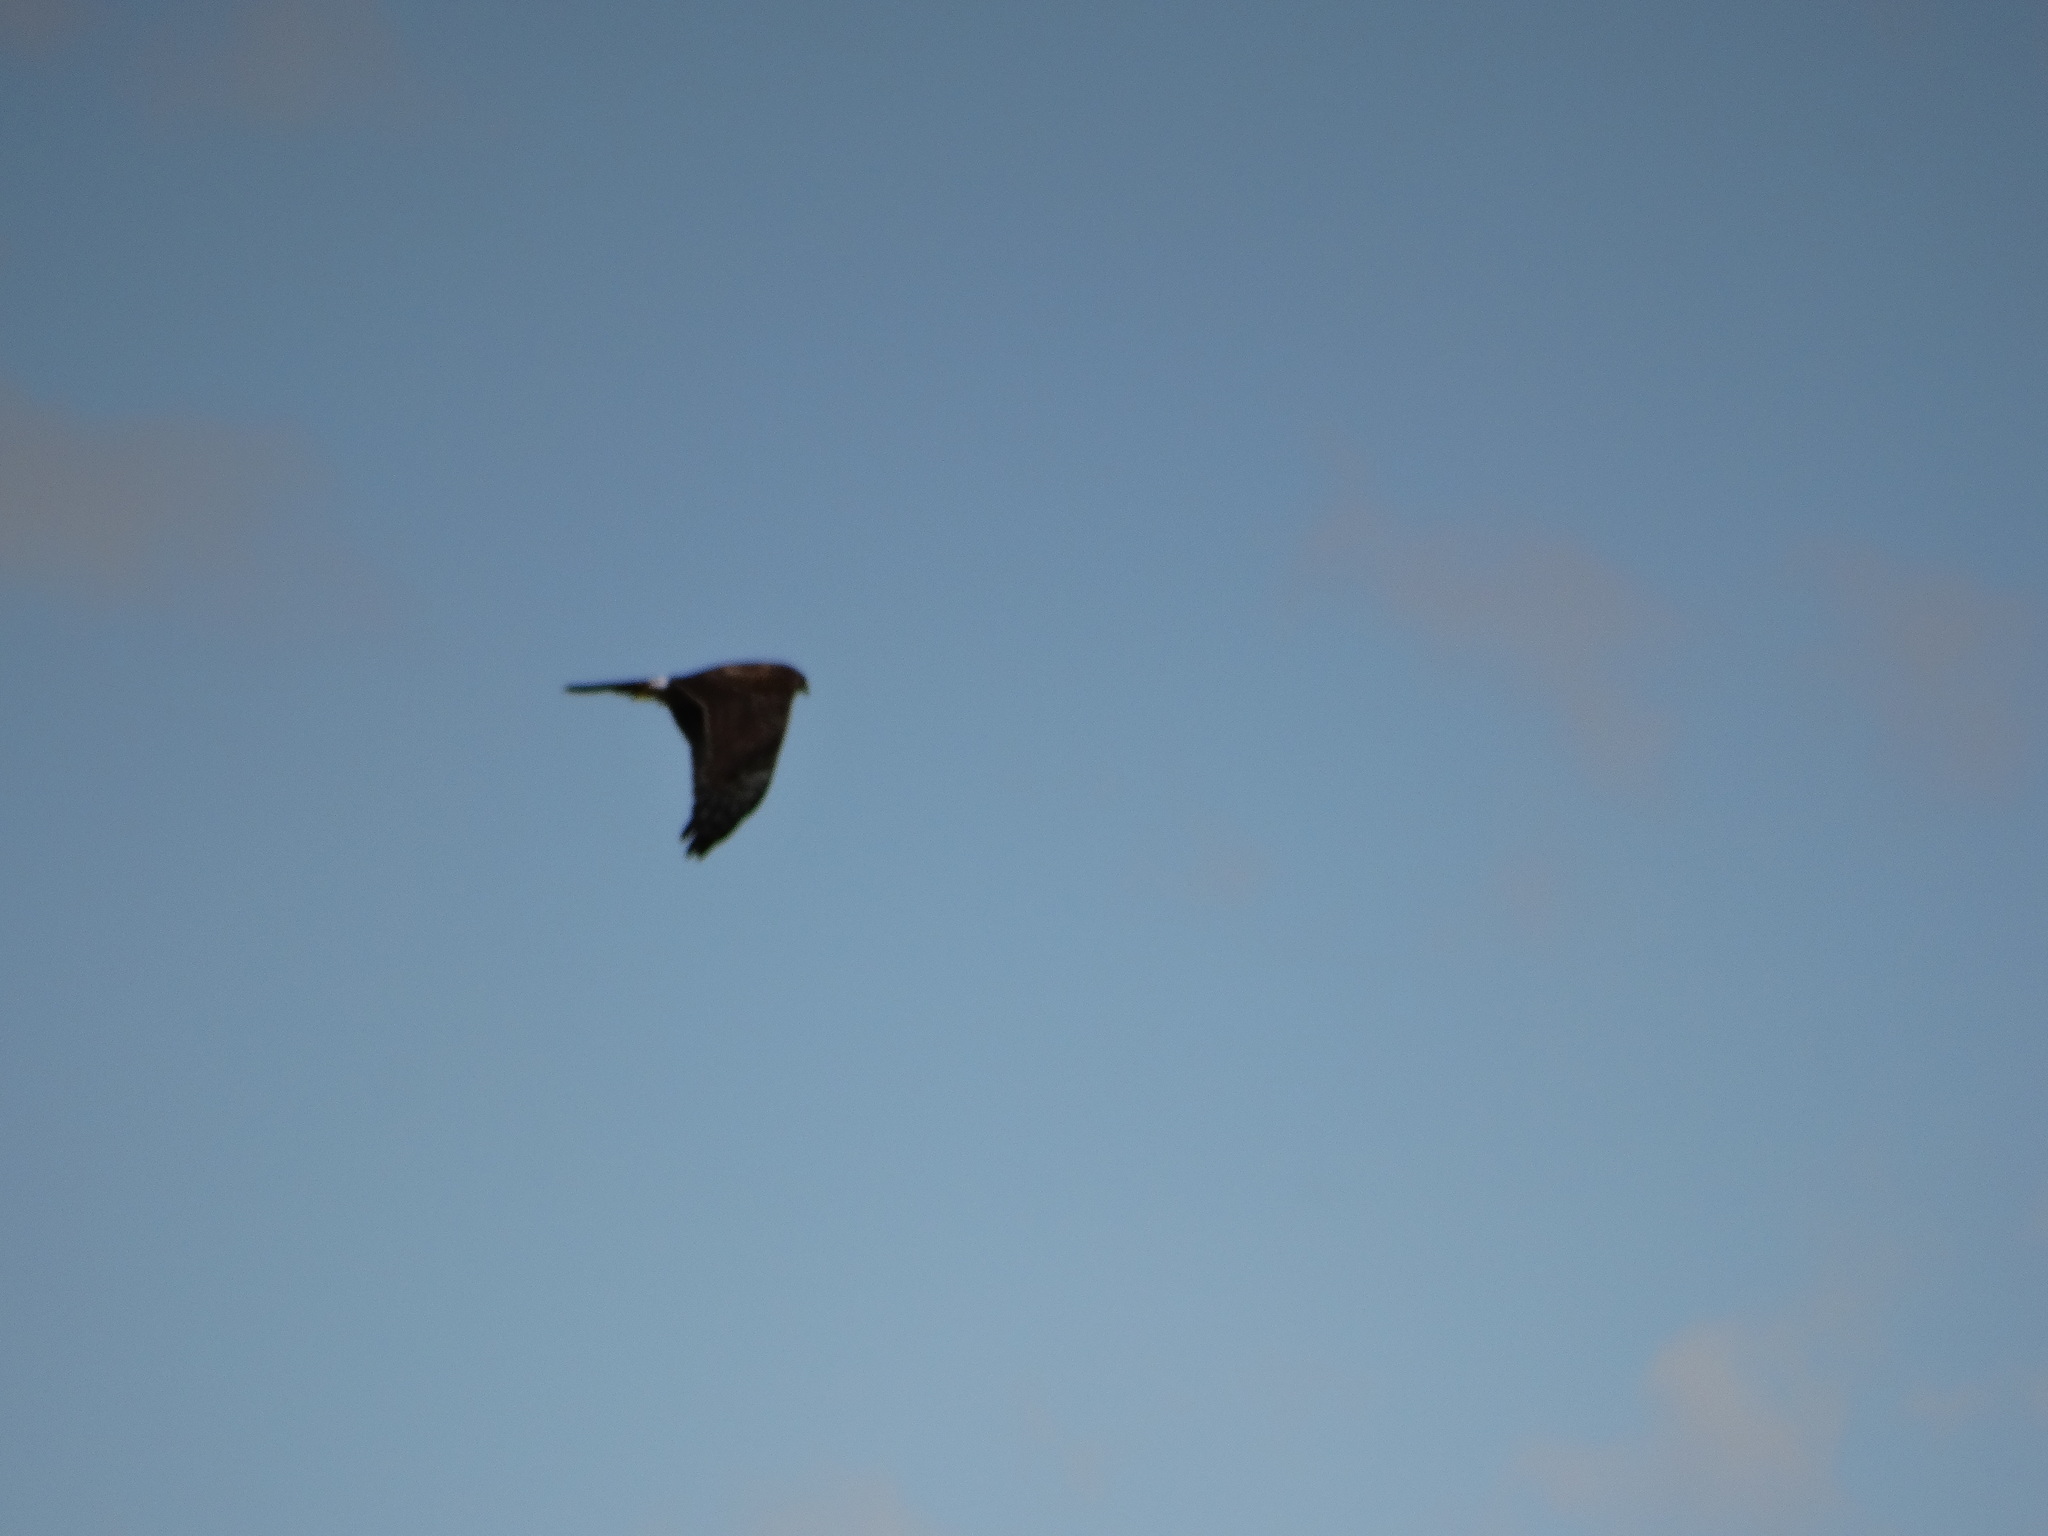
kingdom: Animalia
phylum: Chordata
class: Aves
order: Accipitriformes
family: Accipitridae
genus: Circus
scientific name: Circus cyaneus
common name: Hen harrier
